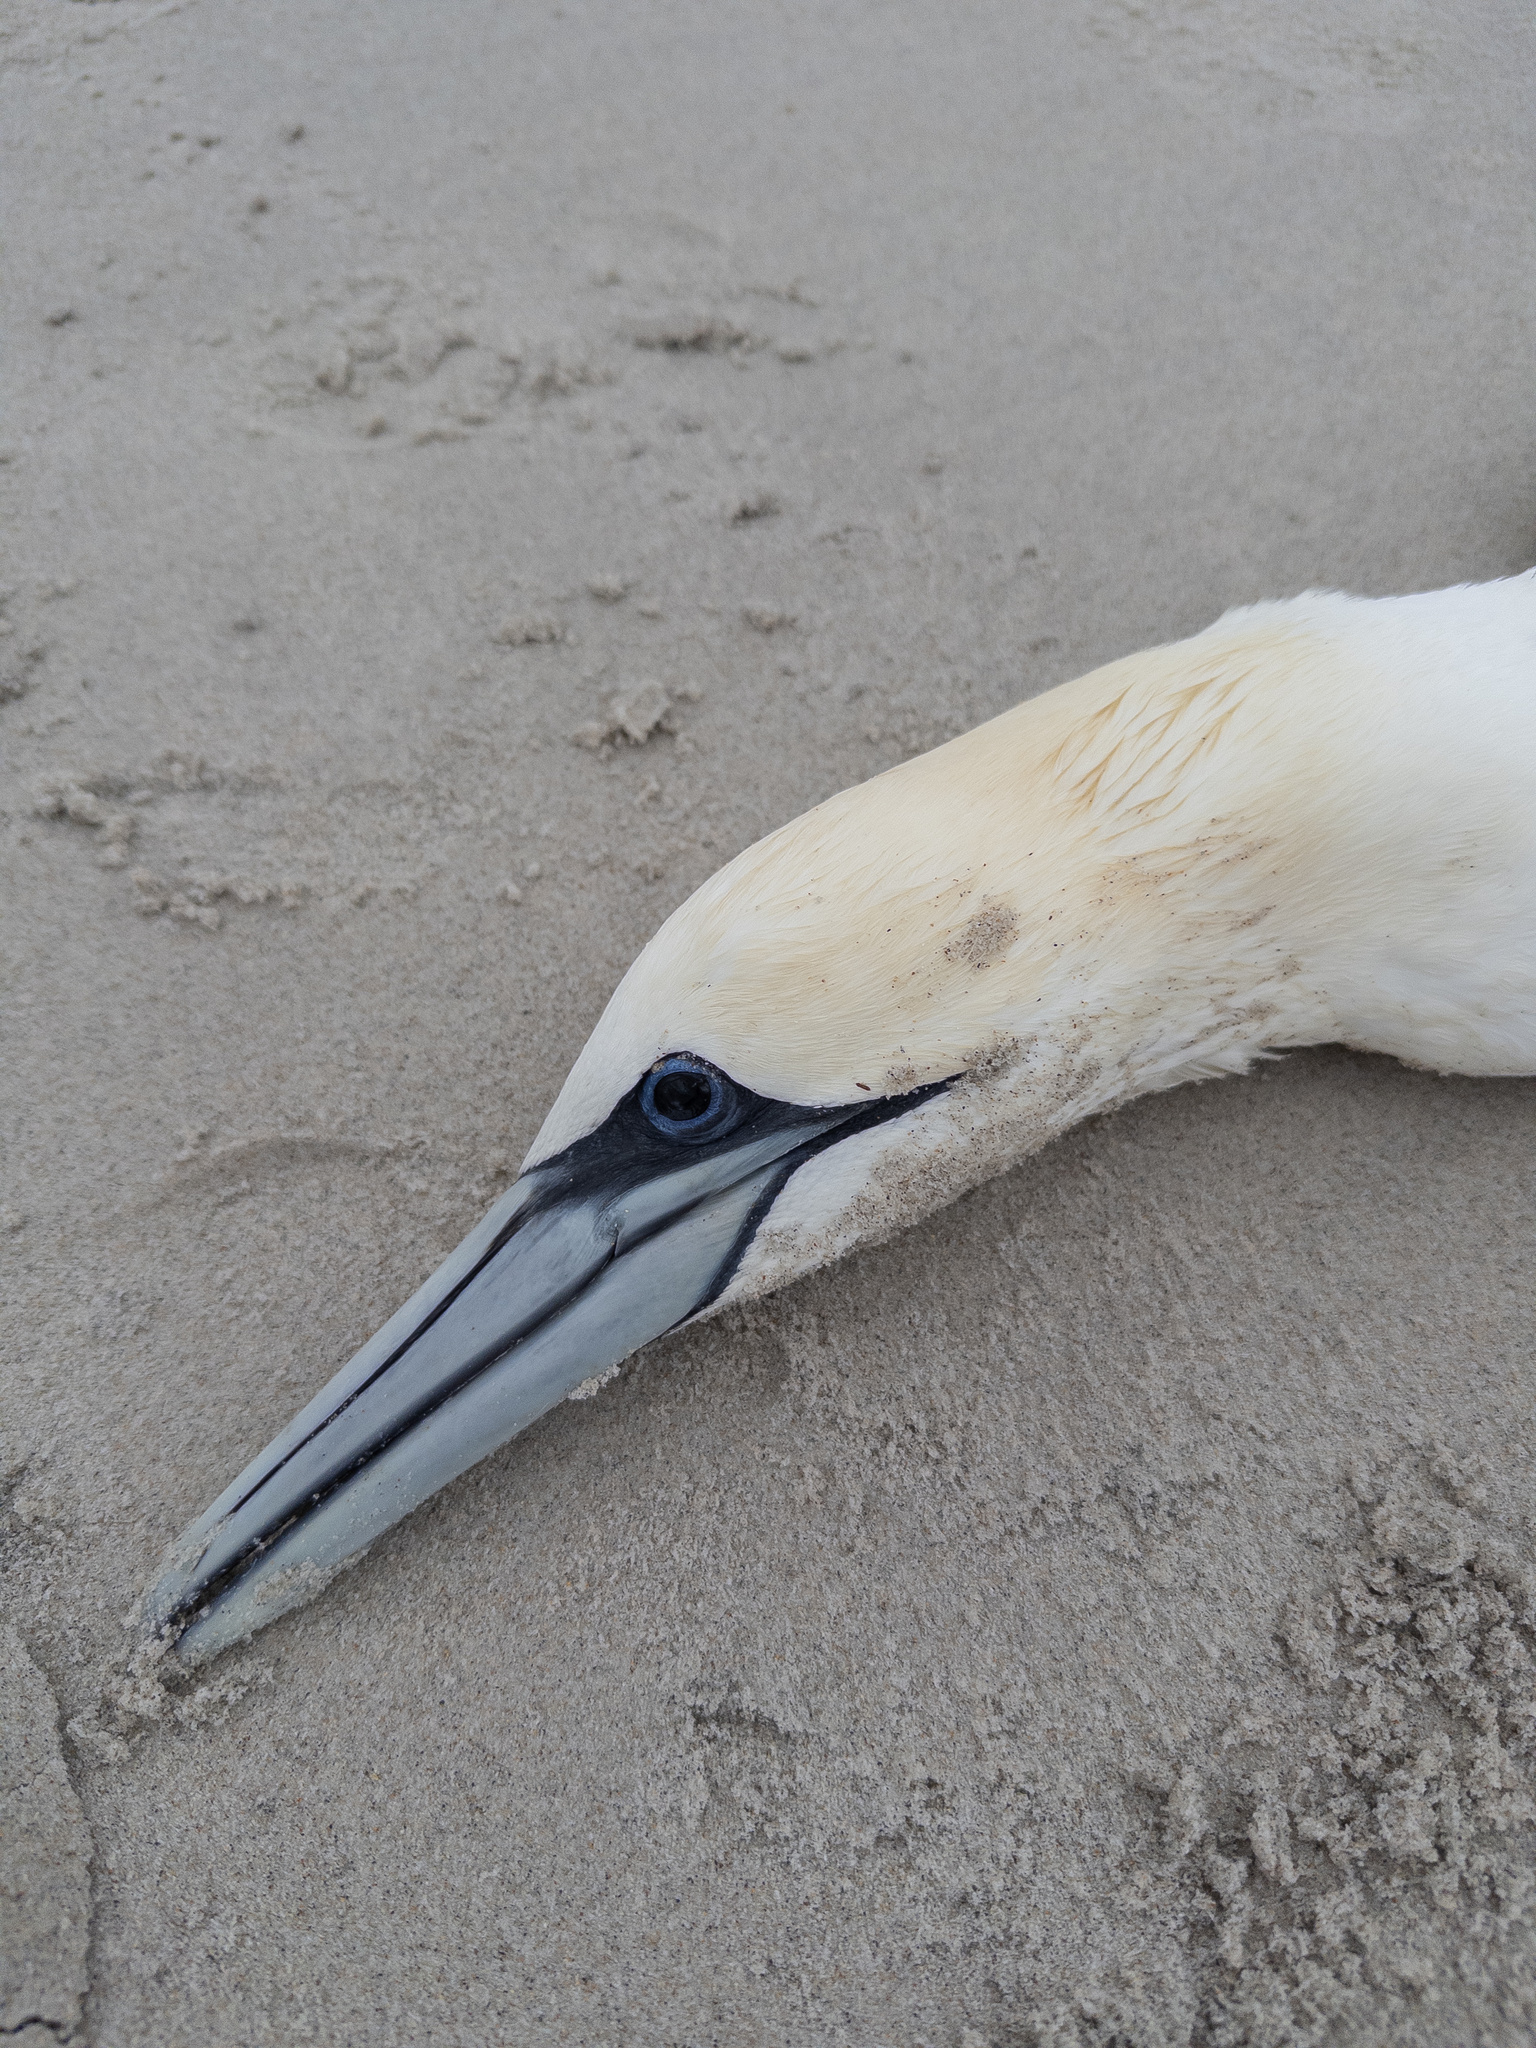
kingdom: Animalia
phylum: Chordata
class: Aves
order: Suliformes
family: Sulidae
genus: Morus
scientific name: Morus bassanus
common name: Northern gannet
